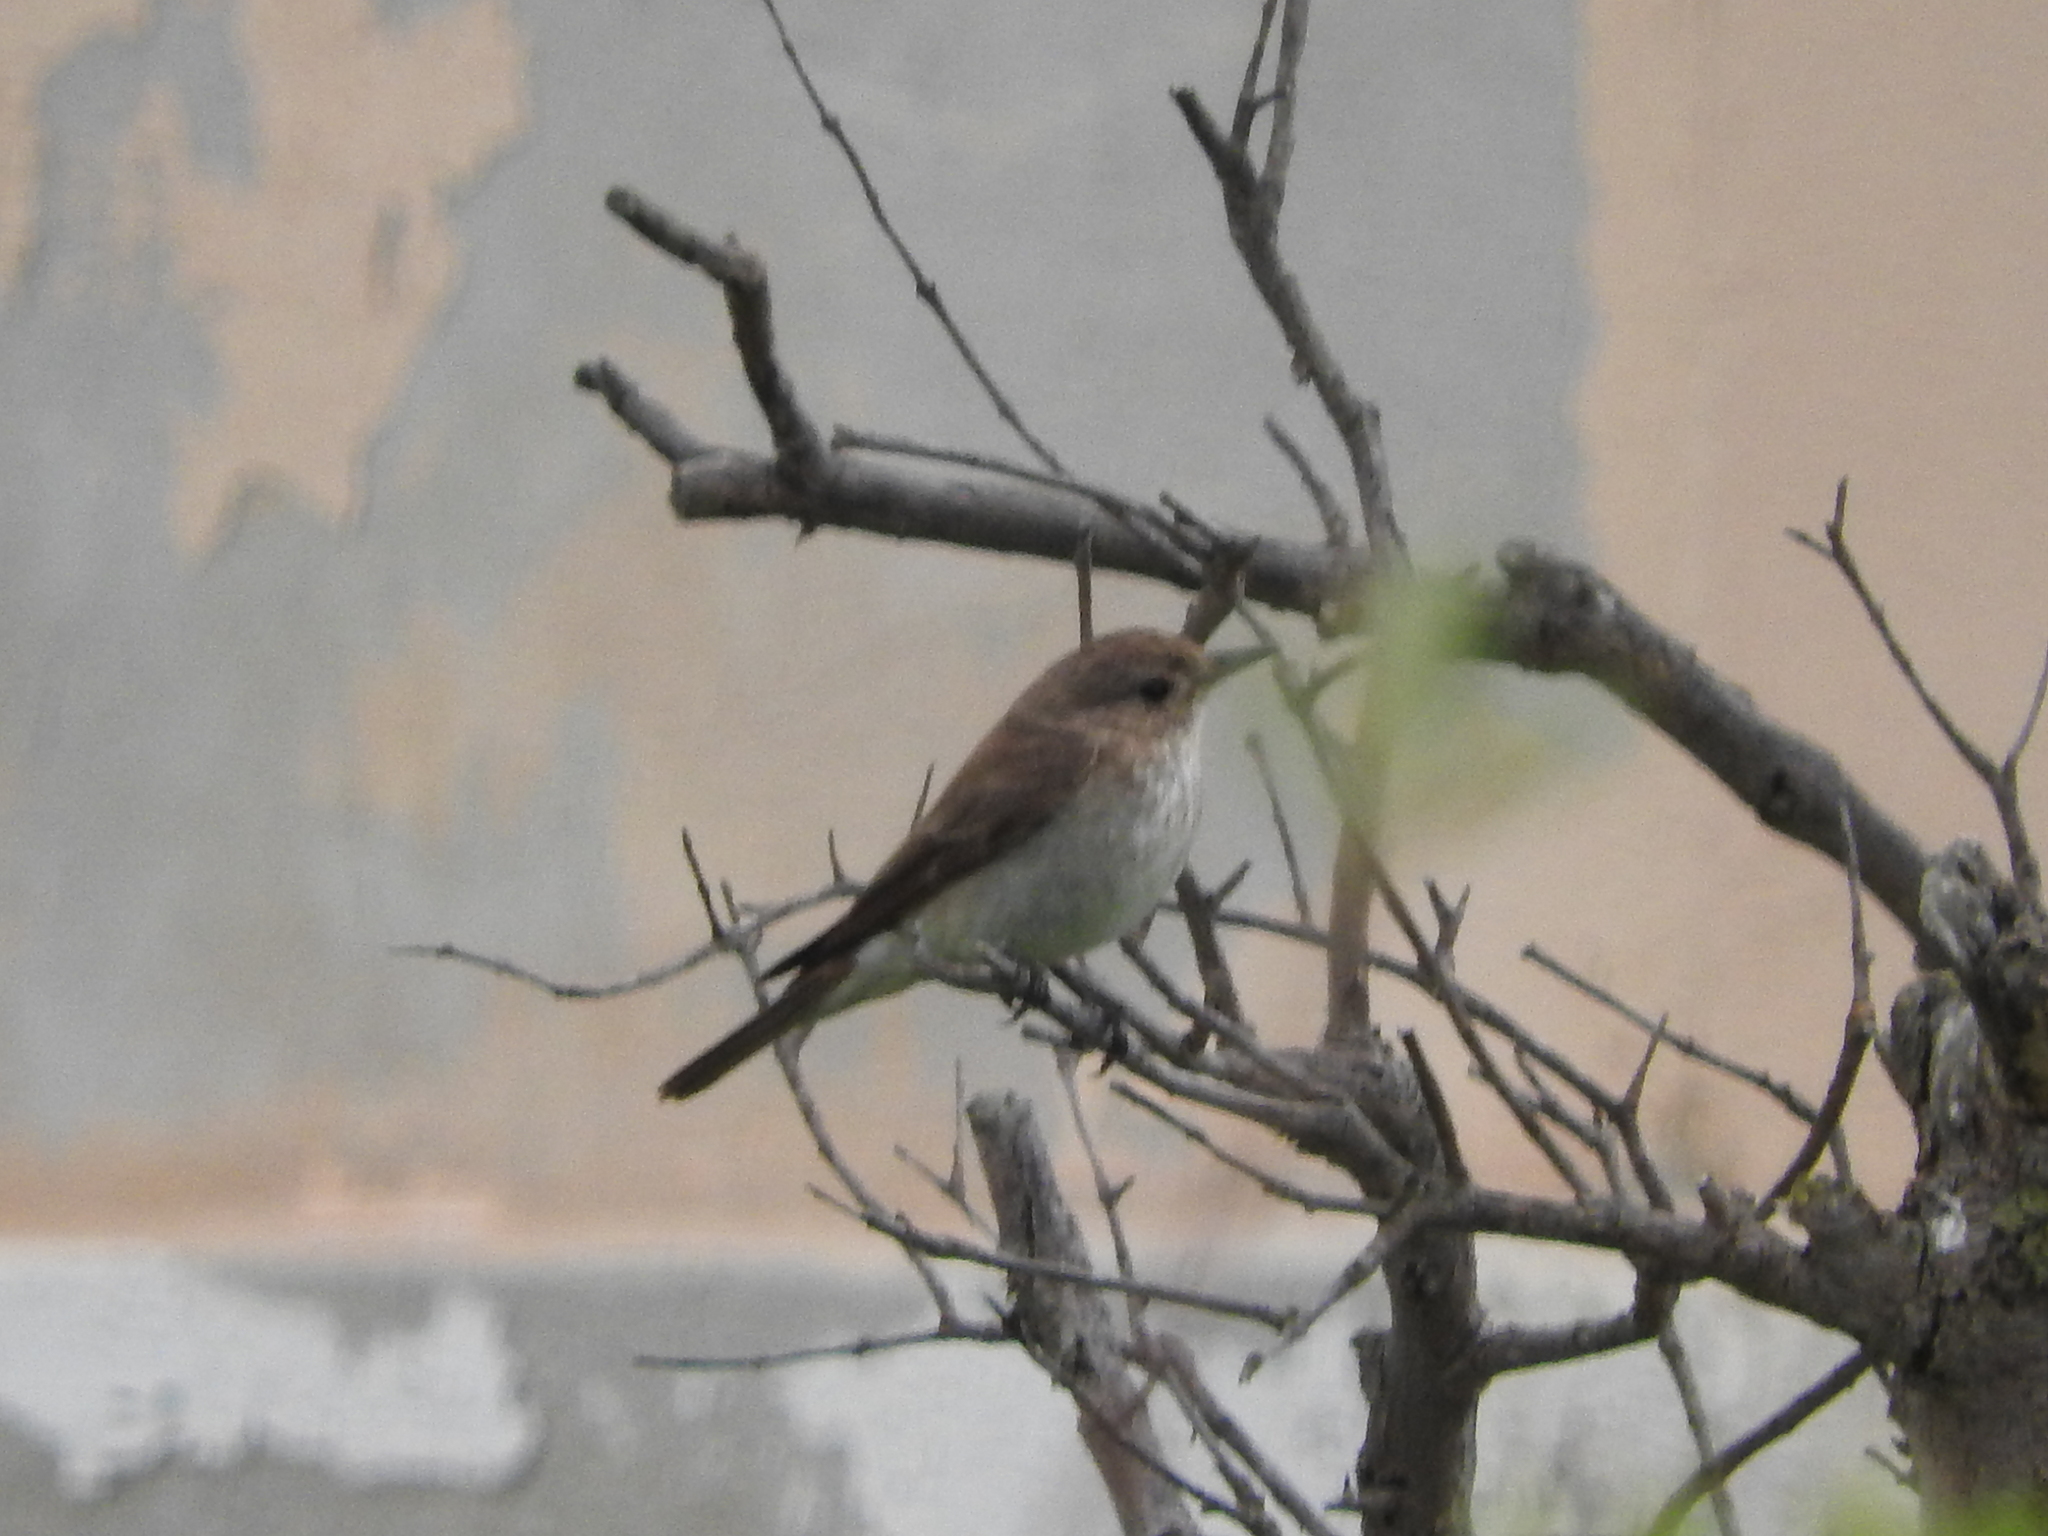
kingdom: Animalia
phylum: Chordata
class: Aves
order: Passeriformes
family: Muscicapidae
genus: Muscicapa
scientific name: Muscicapa striata
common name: Spotted flycatcher
